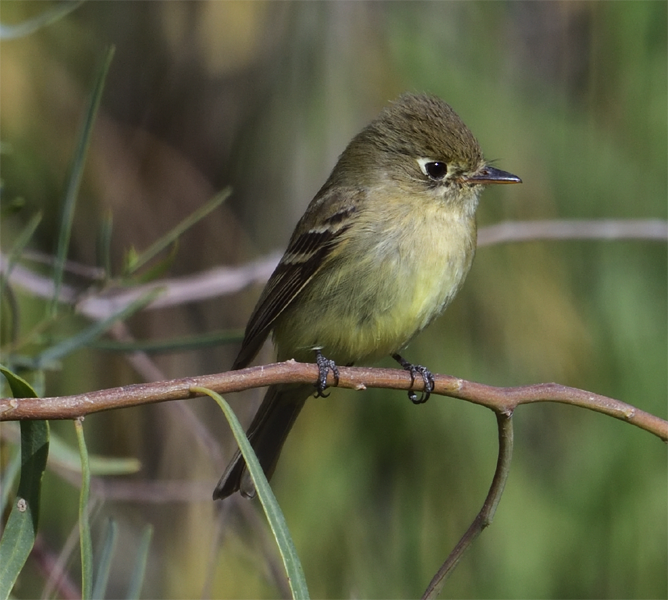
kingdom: Animalia
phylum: Chordata
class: Aves
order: Passeriformes
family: Tyrannidae
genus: Empidonax
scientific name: Empidonax difficilis
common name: Pacific-slope flycatcher
